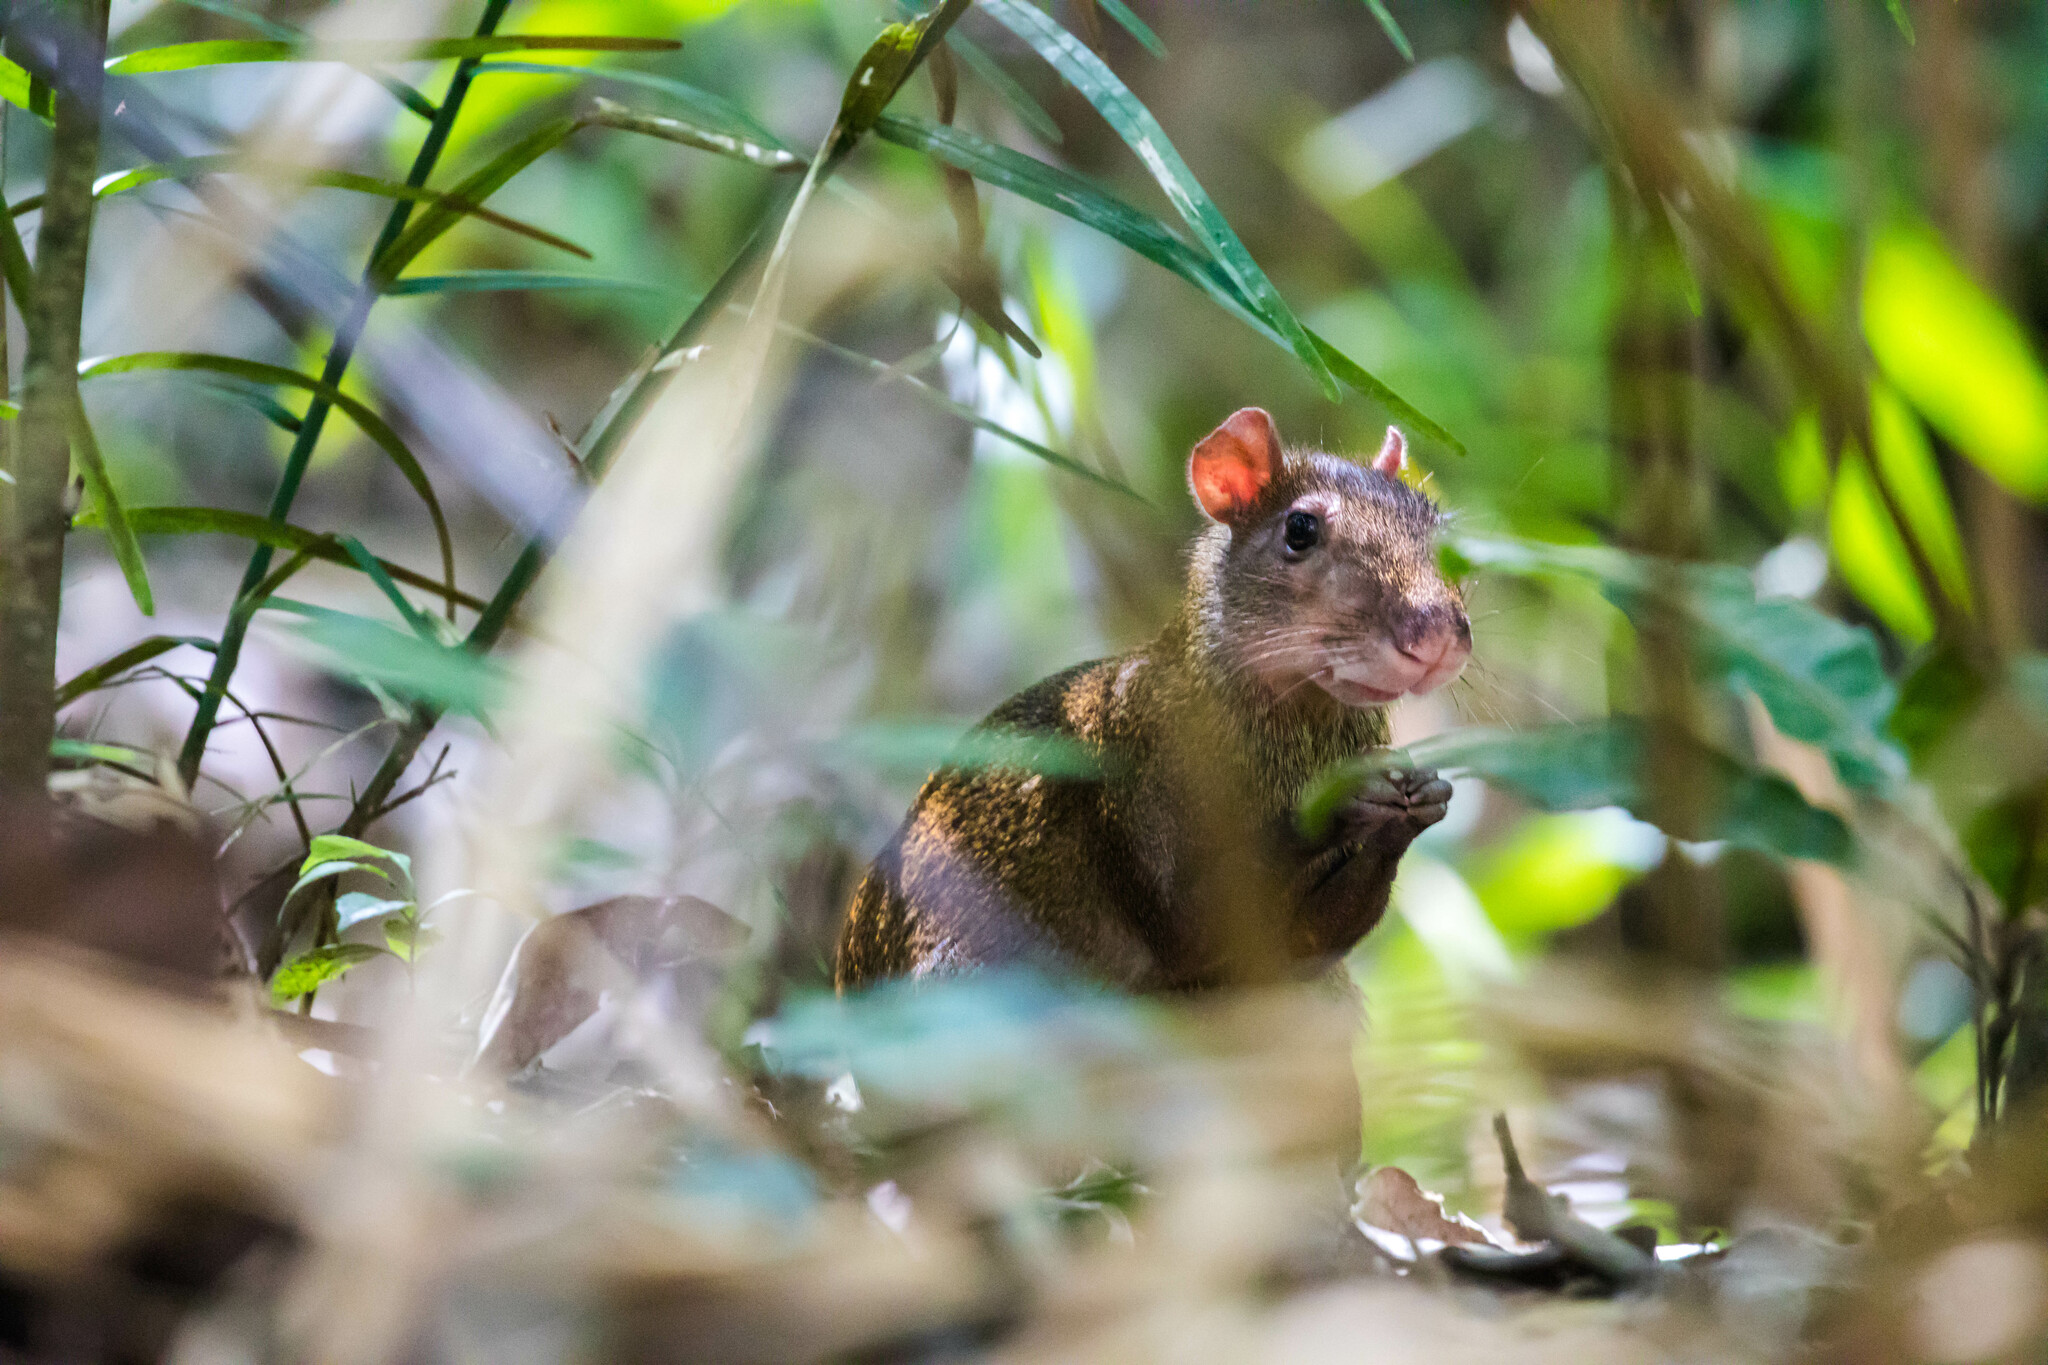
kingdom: Animalia
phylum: Chordata
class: Mammalia
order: Rodentia
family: Dasyproctidae
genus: Dasyprocta
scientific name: Dasyprocta punctata
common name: Central american agouti
